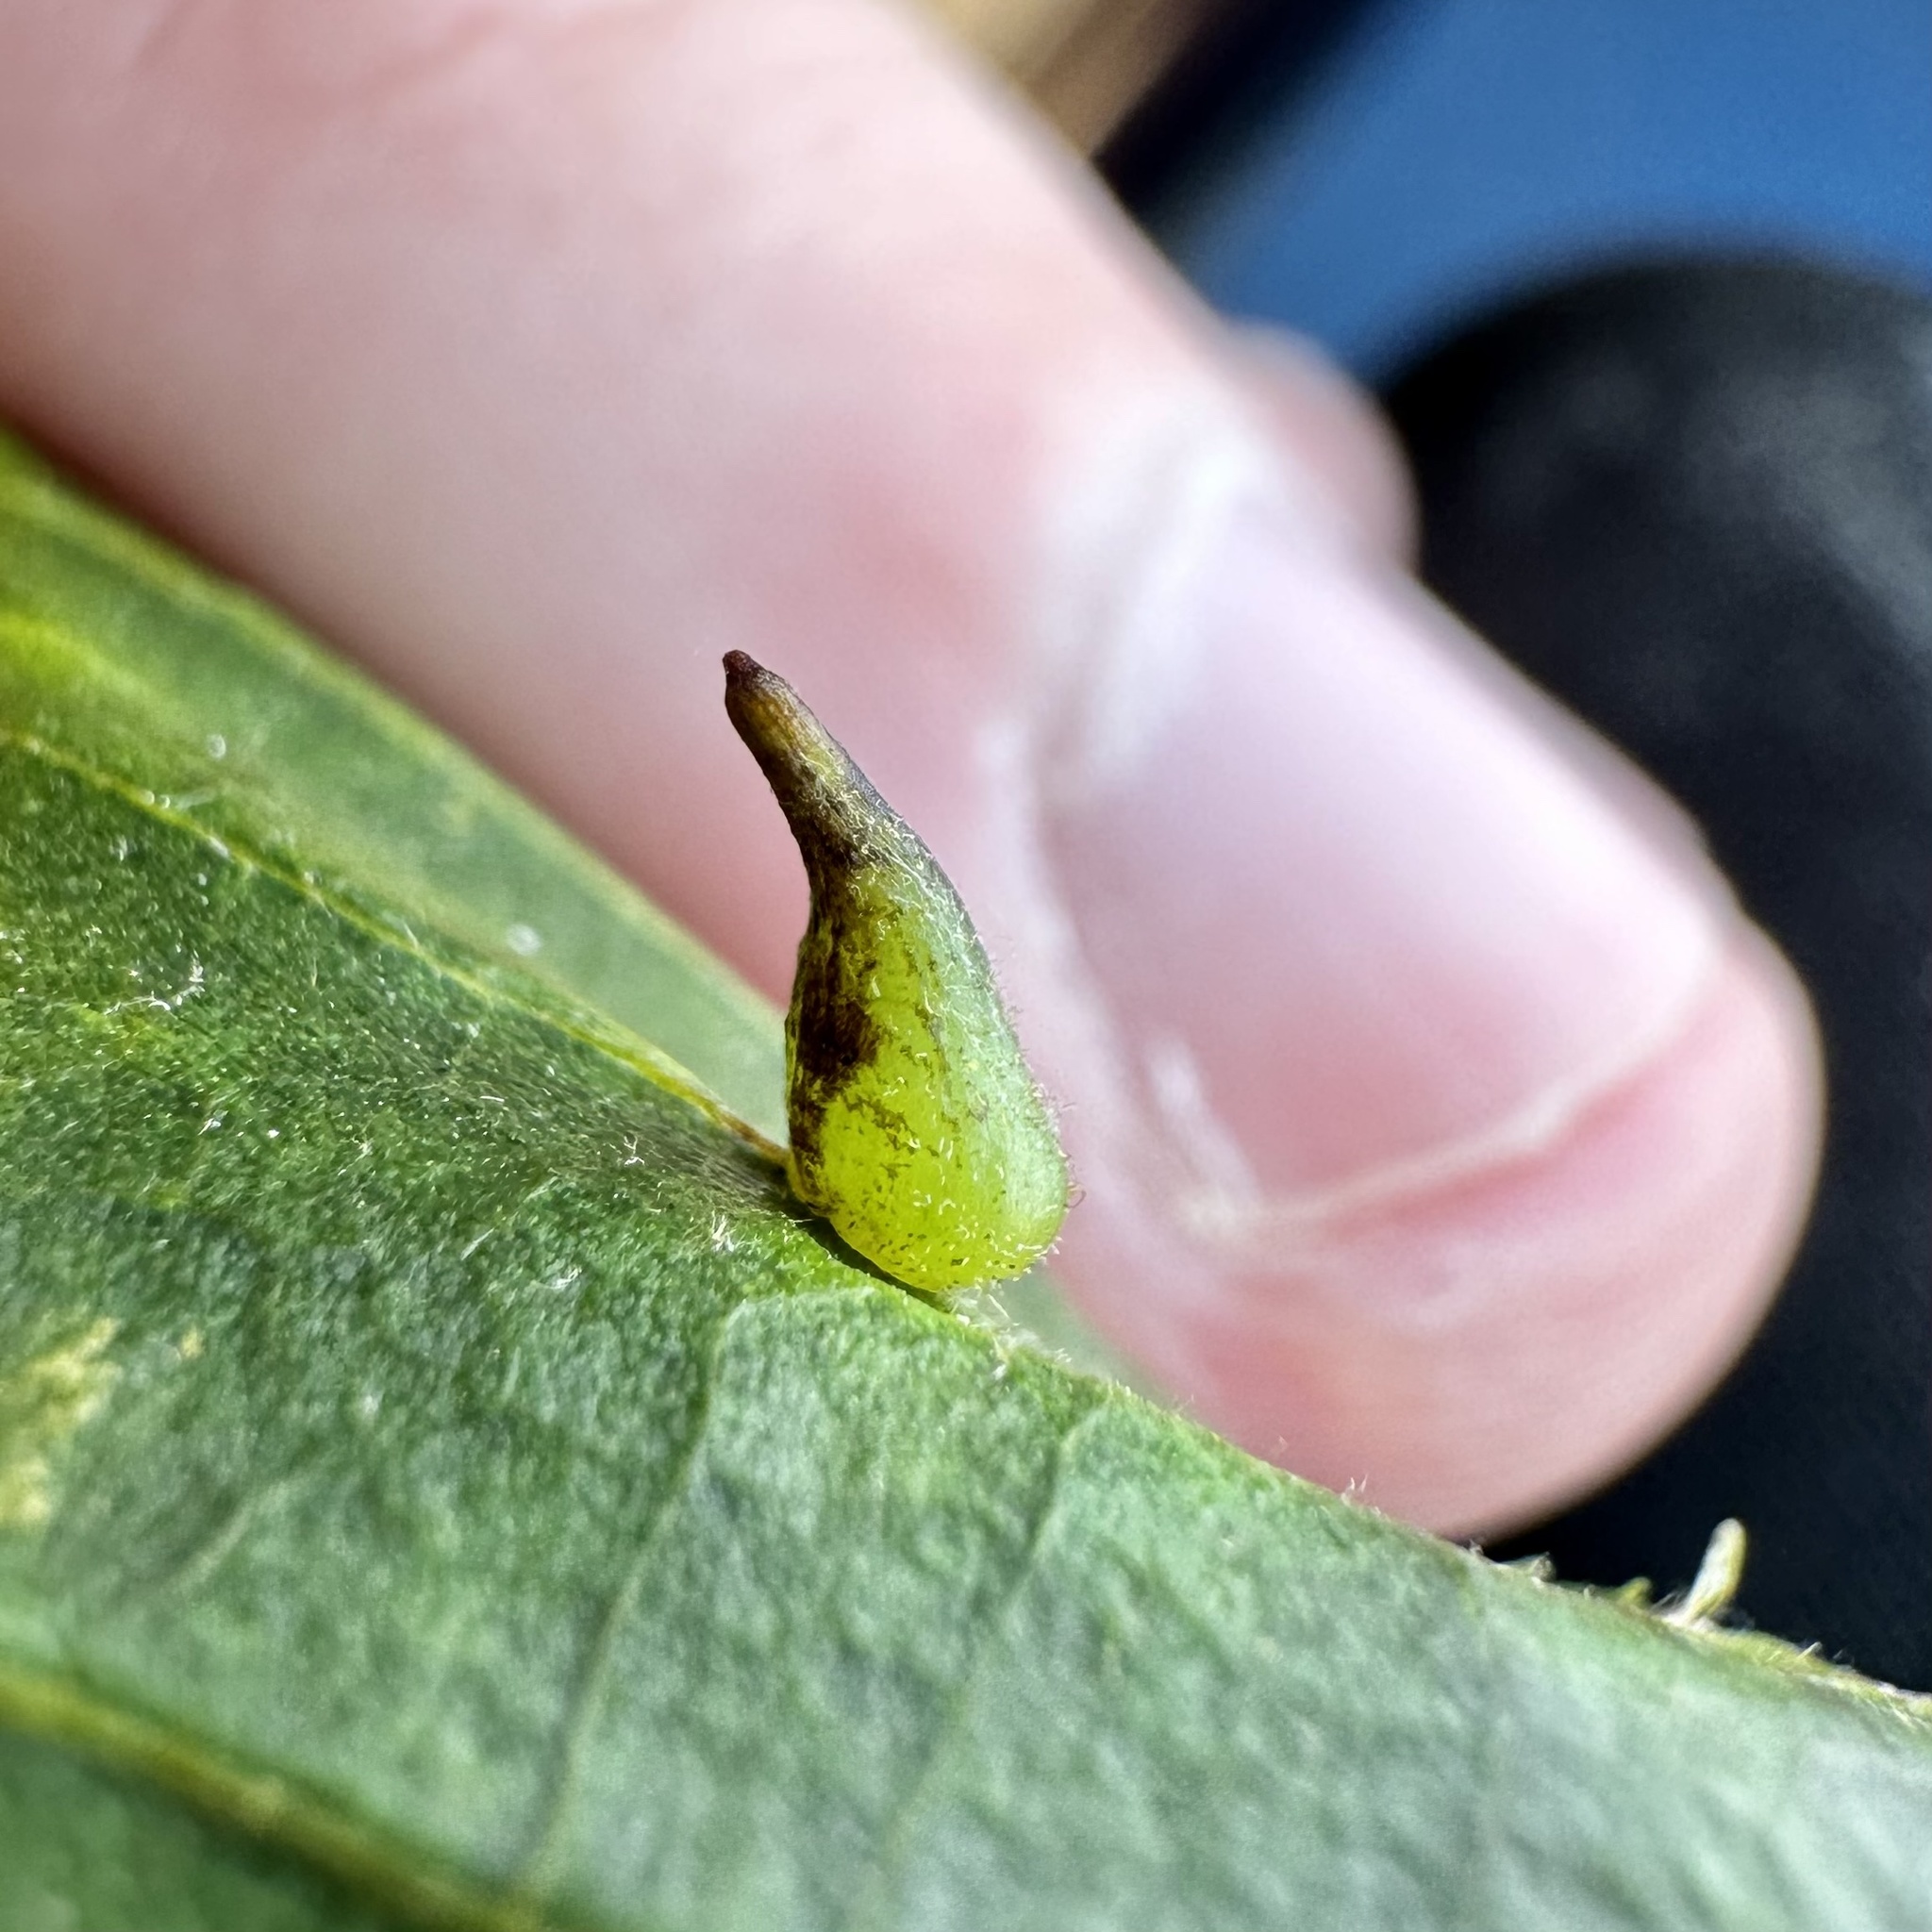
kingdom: Animalia
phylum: Arthropoda
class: Insecta
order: Diptera
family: Cecidomyiidae
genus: Caryomyia
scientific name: Caryomyia spinulosa
